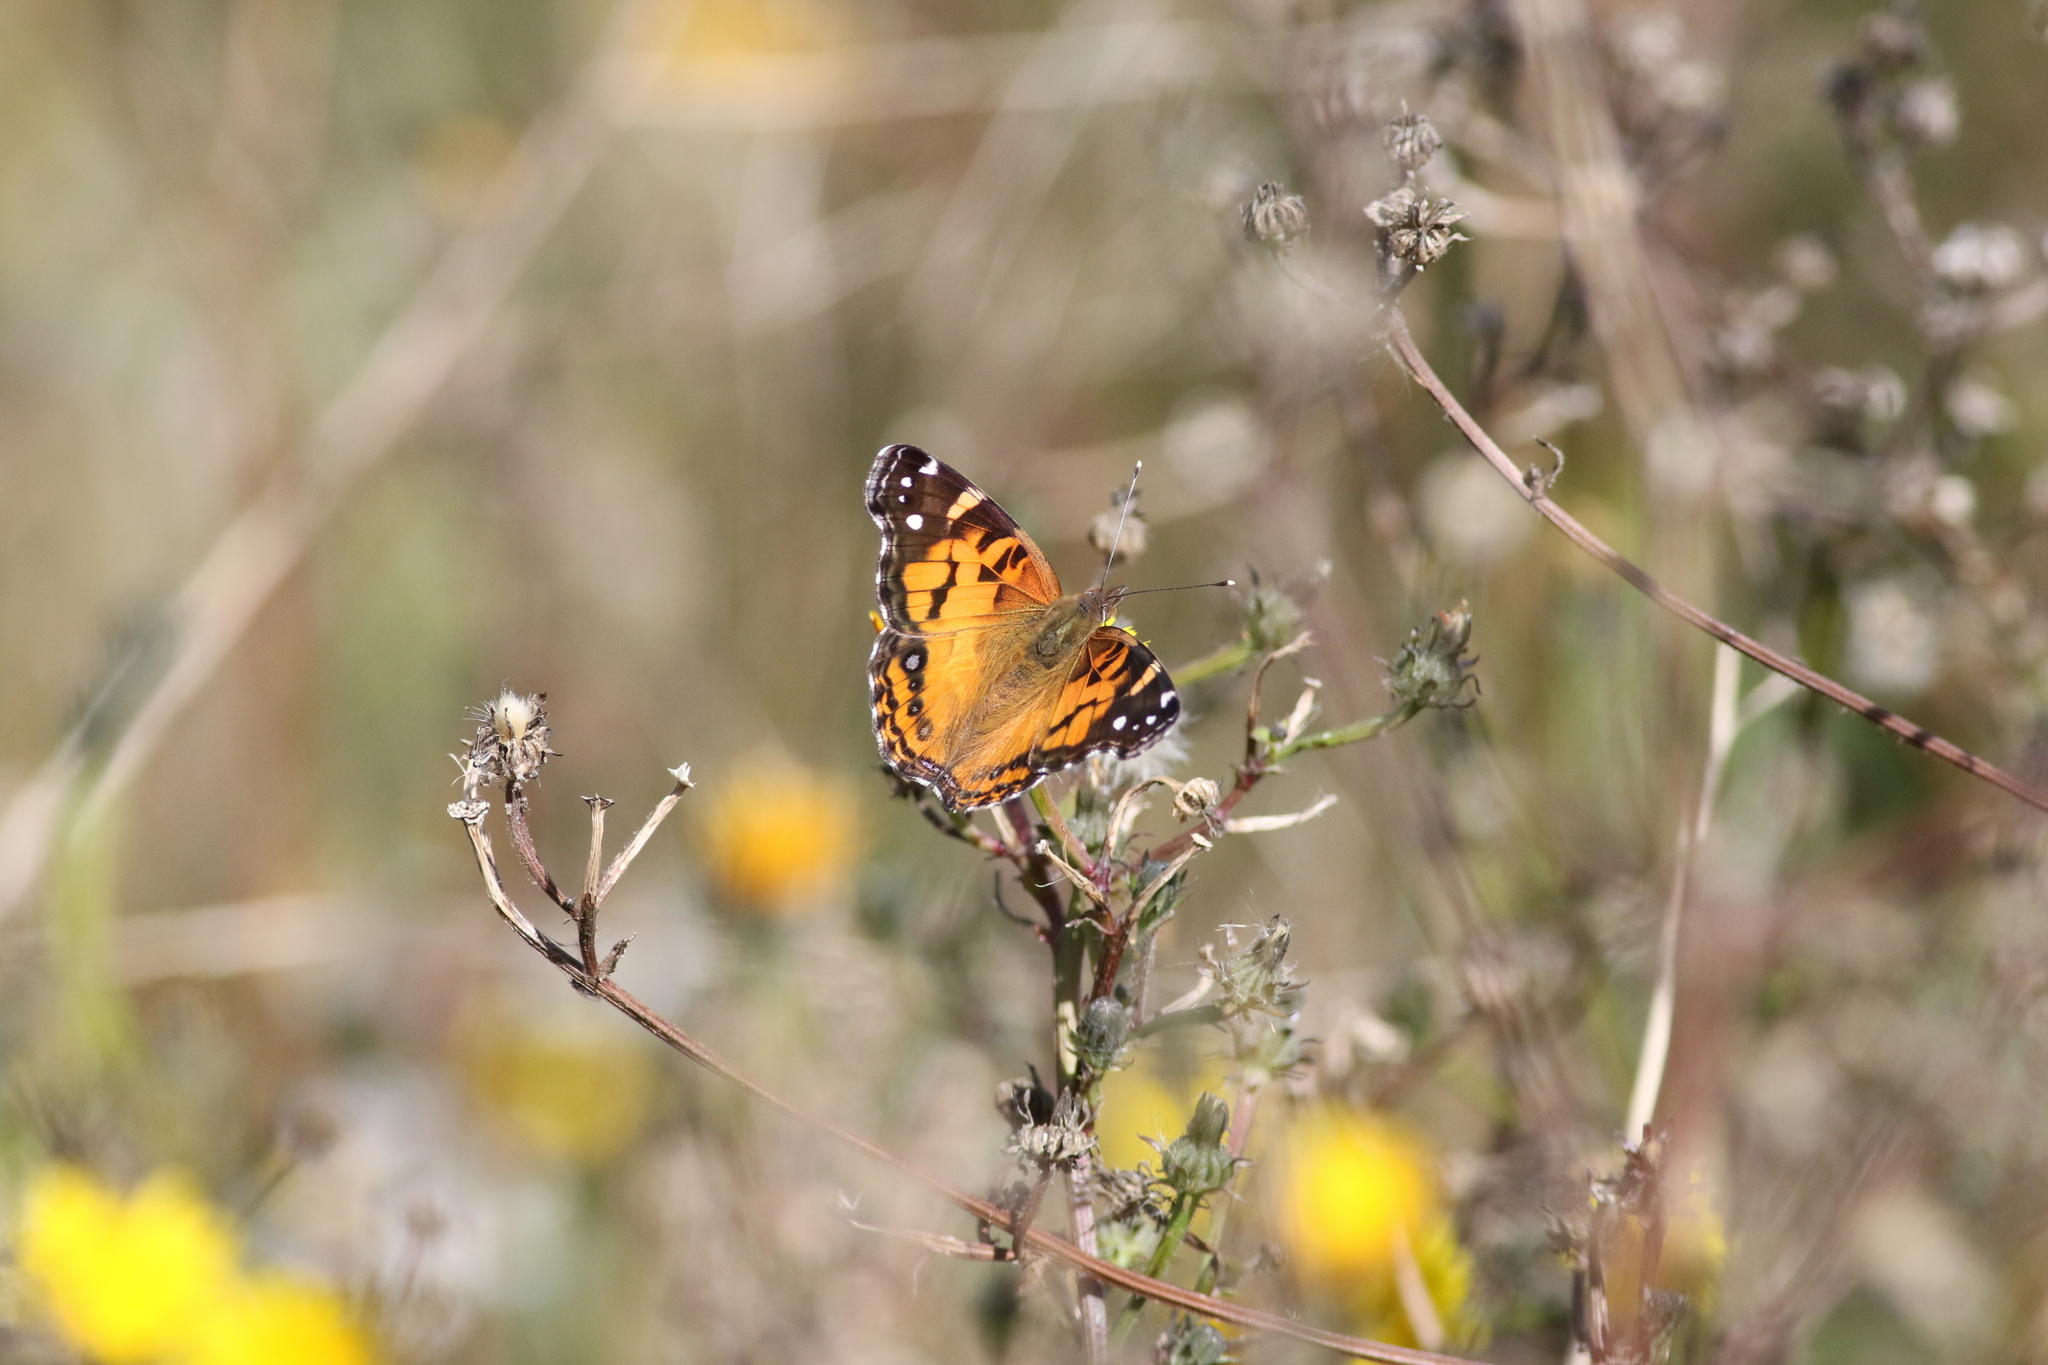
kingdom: Animalia
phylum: Arthropoda
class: Insecta
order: Lepidoptera
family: Nymphalidae
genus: Vanessa
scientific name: Vanessa virginiensis
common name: American lady
